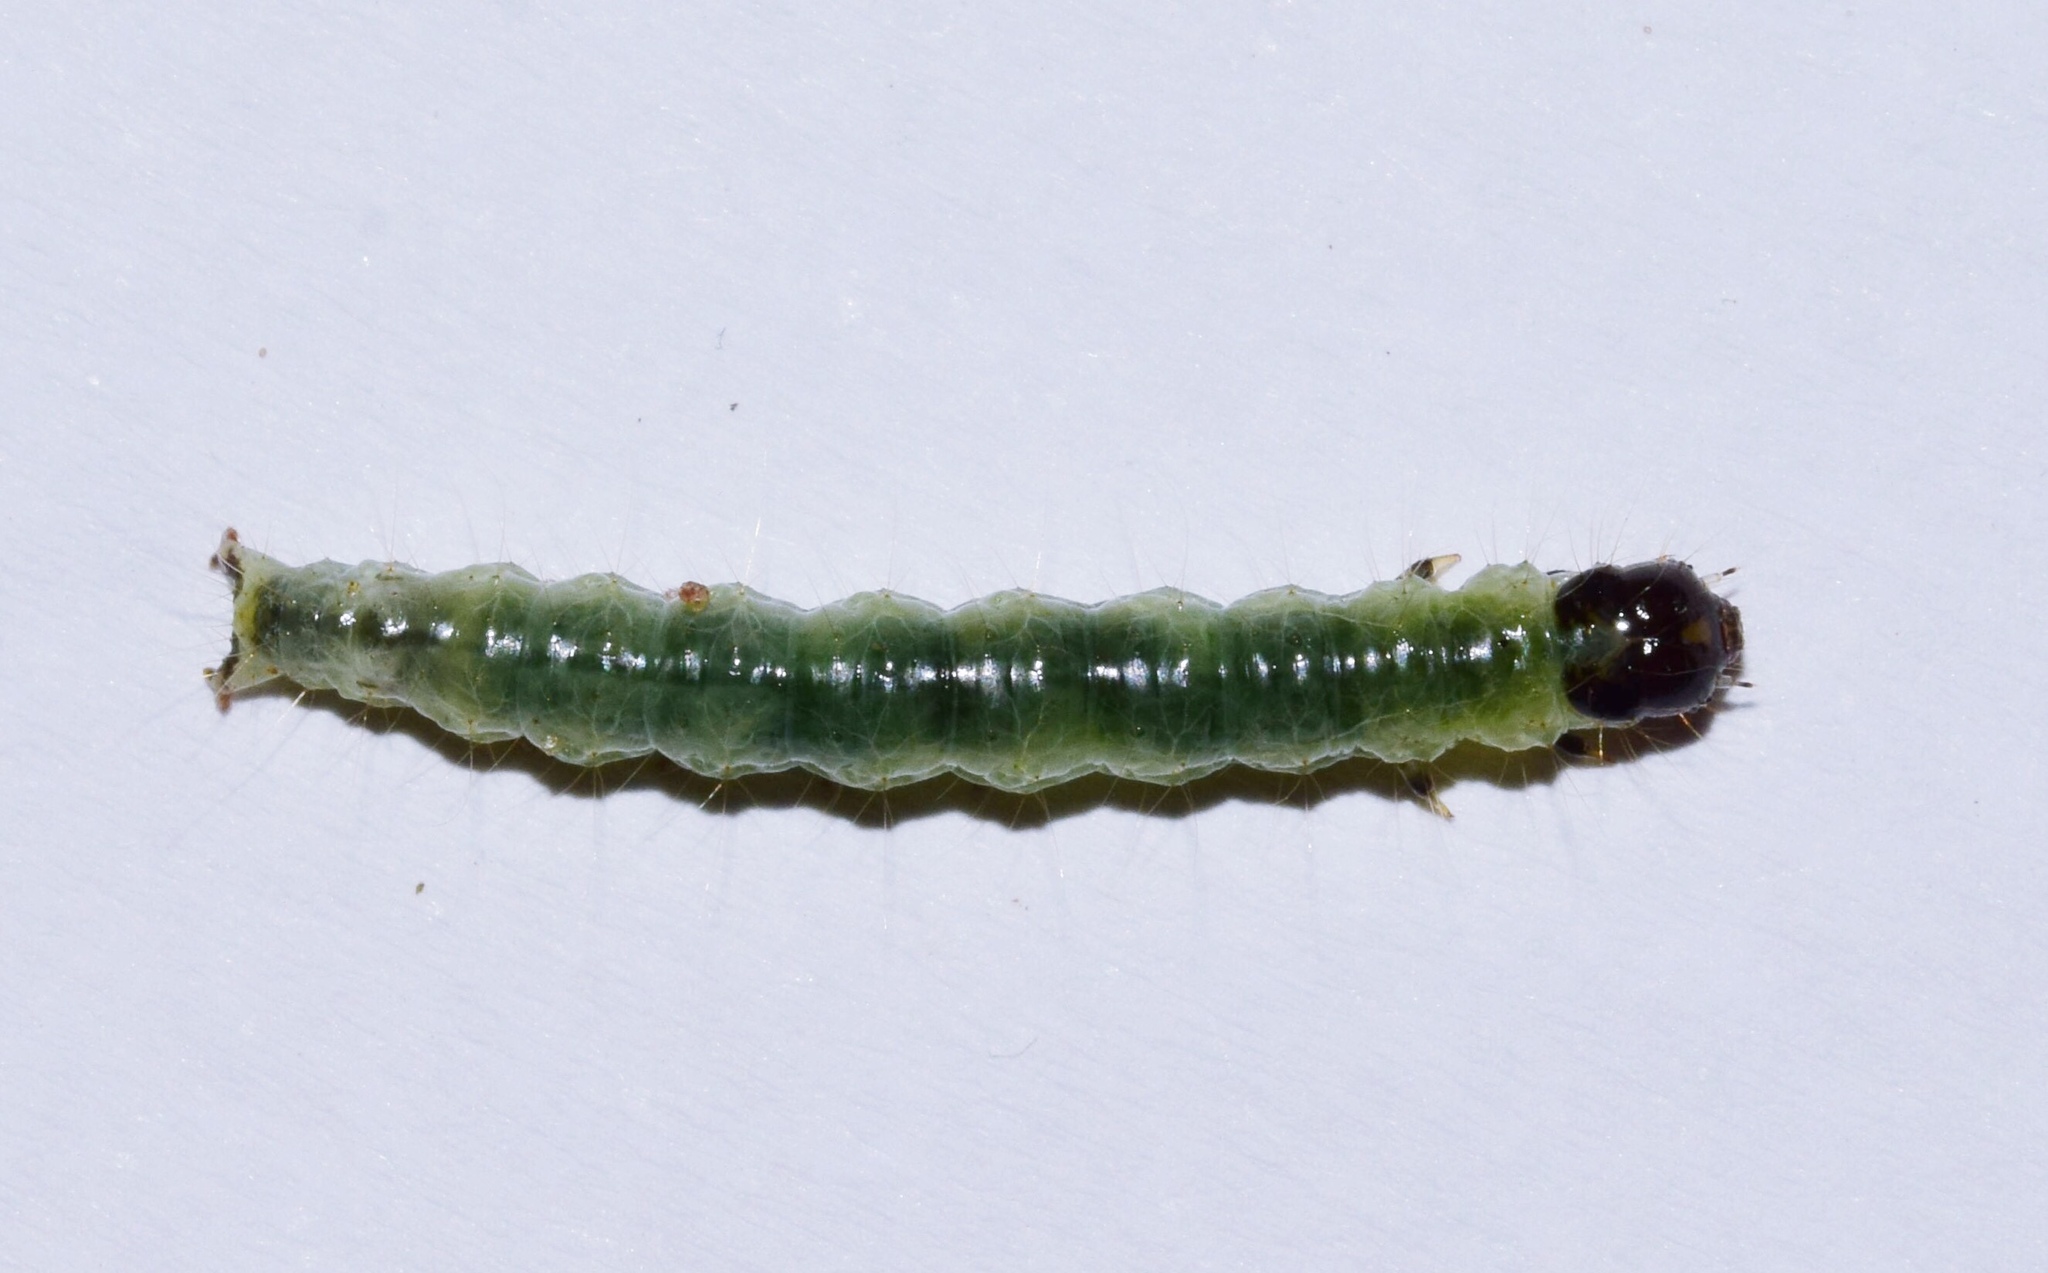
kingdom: Animalia
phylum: Arthropoda
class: Insecta
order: Lepidoptera
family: Crambidae
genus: Syllepte
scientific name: Syllepte polycymalis
